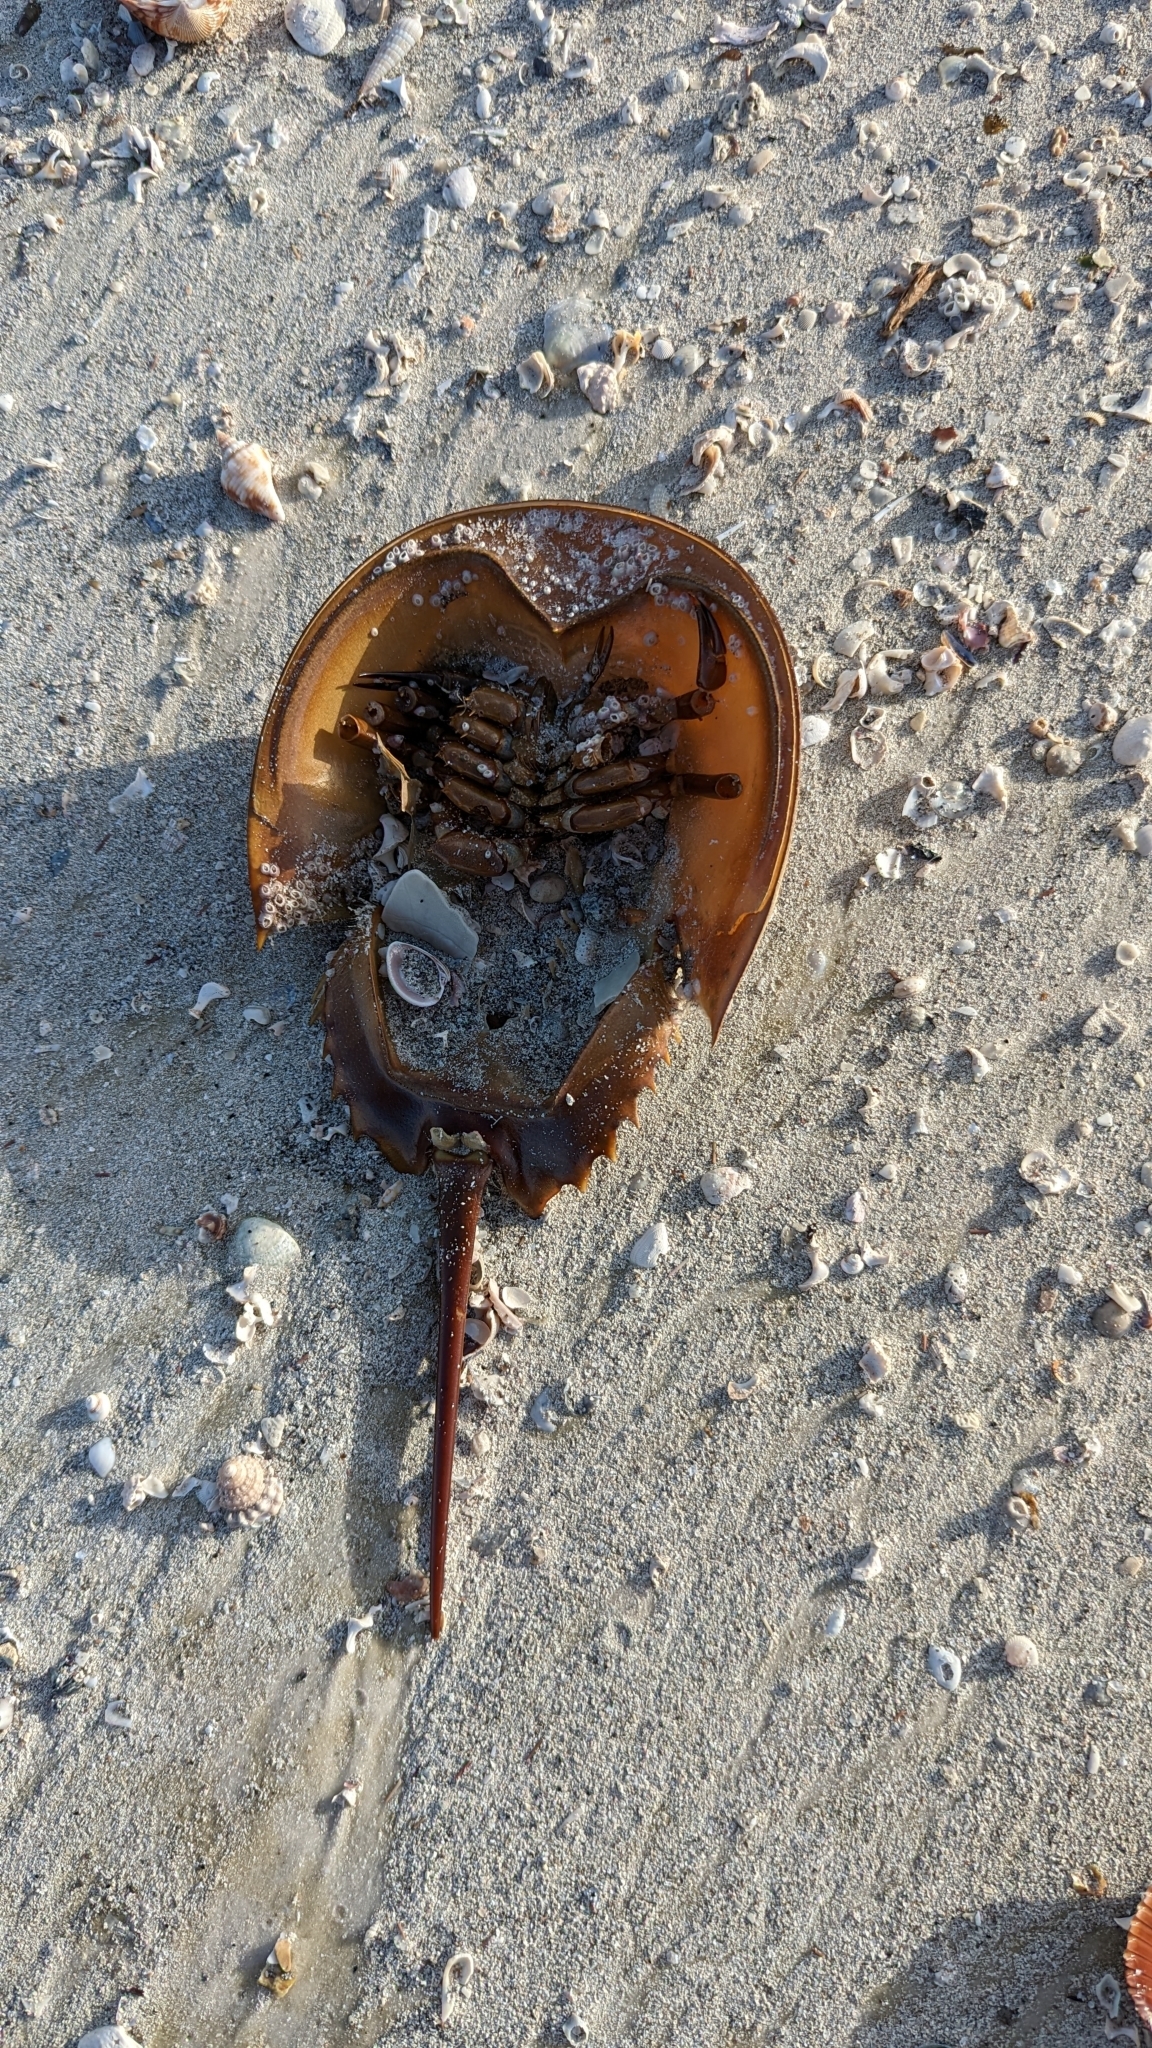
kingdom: Animalia
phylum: Arthropoda
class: Merostomata
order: Xiphosurida
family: Limulidae
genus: Limulus
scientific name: Limulus polyphemus
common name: Horseshoe crab
